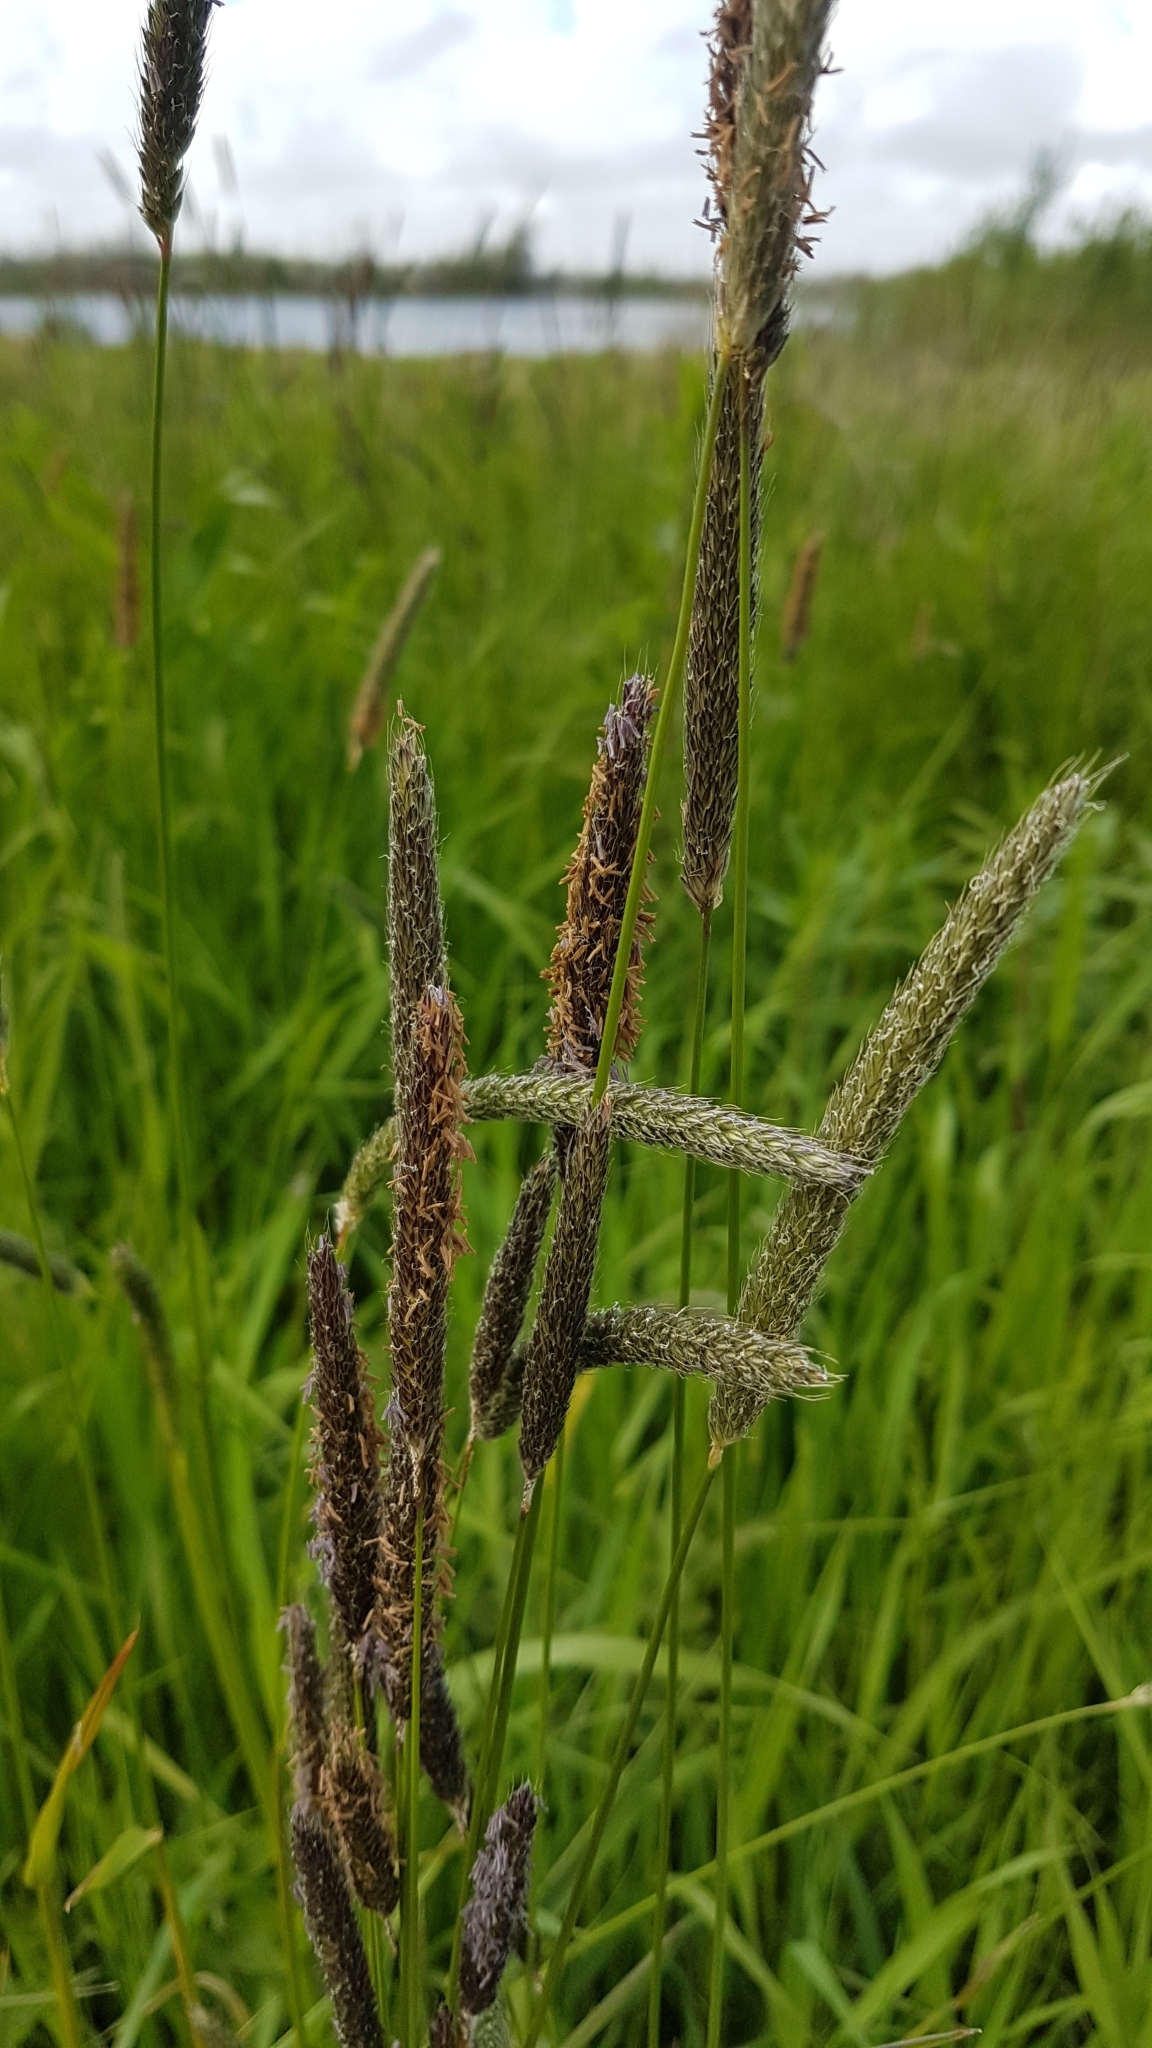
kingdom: Plantae
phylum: Tracheophyta
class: Liliopsida
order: Poales
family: Poaceae
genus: Alopecurus
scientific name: Alopecurus pratensis
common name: Meadow foxtail
